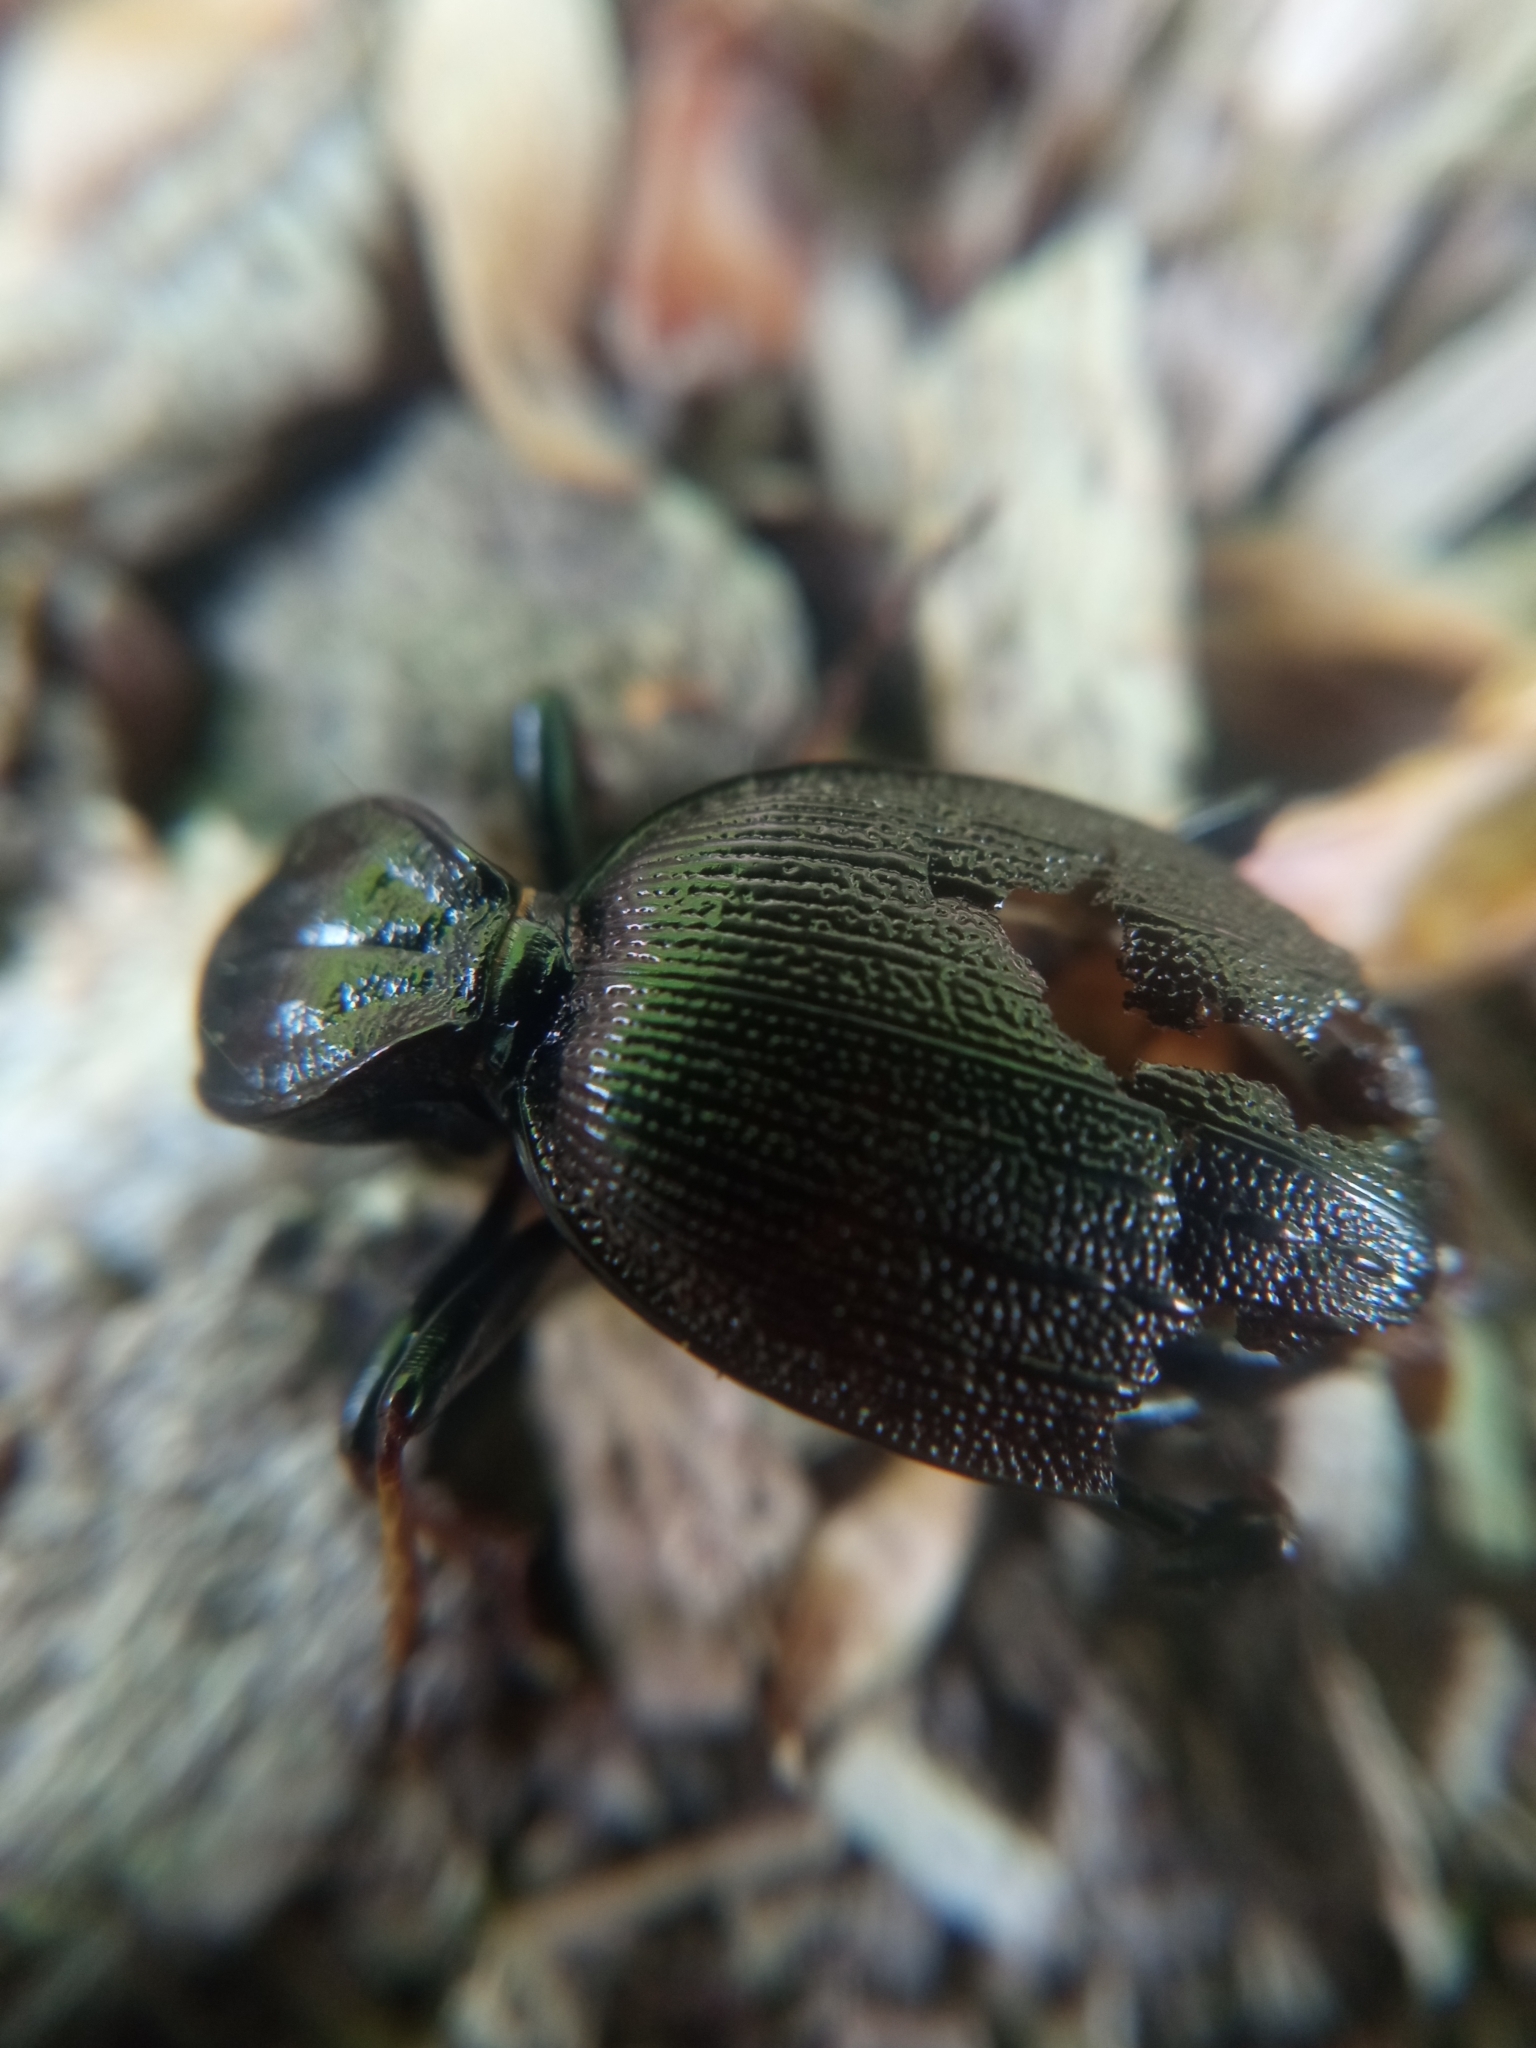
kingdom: Animalia
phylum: Arthropoda
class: Insecta
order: Coleoptera
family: Carabidae
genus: Cychrus
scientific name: Cychrus attenuatus
